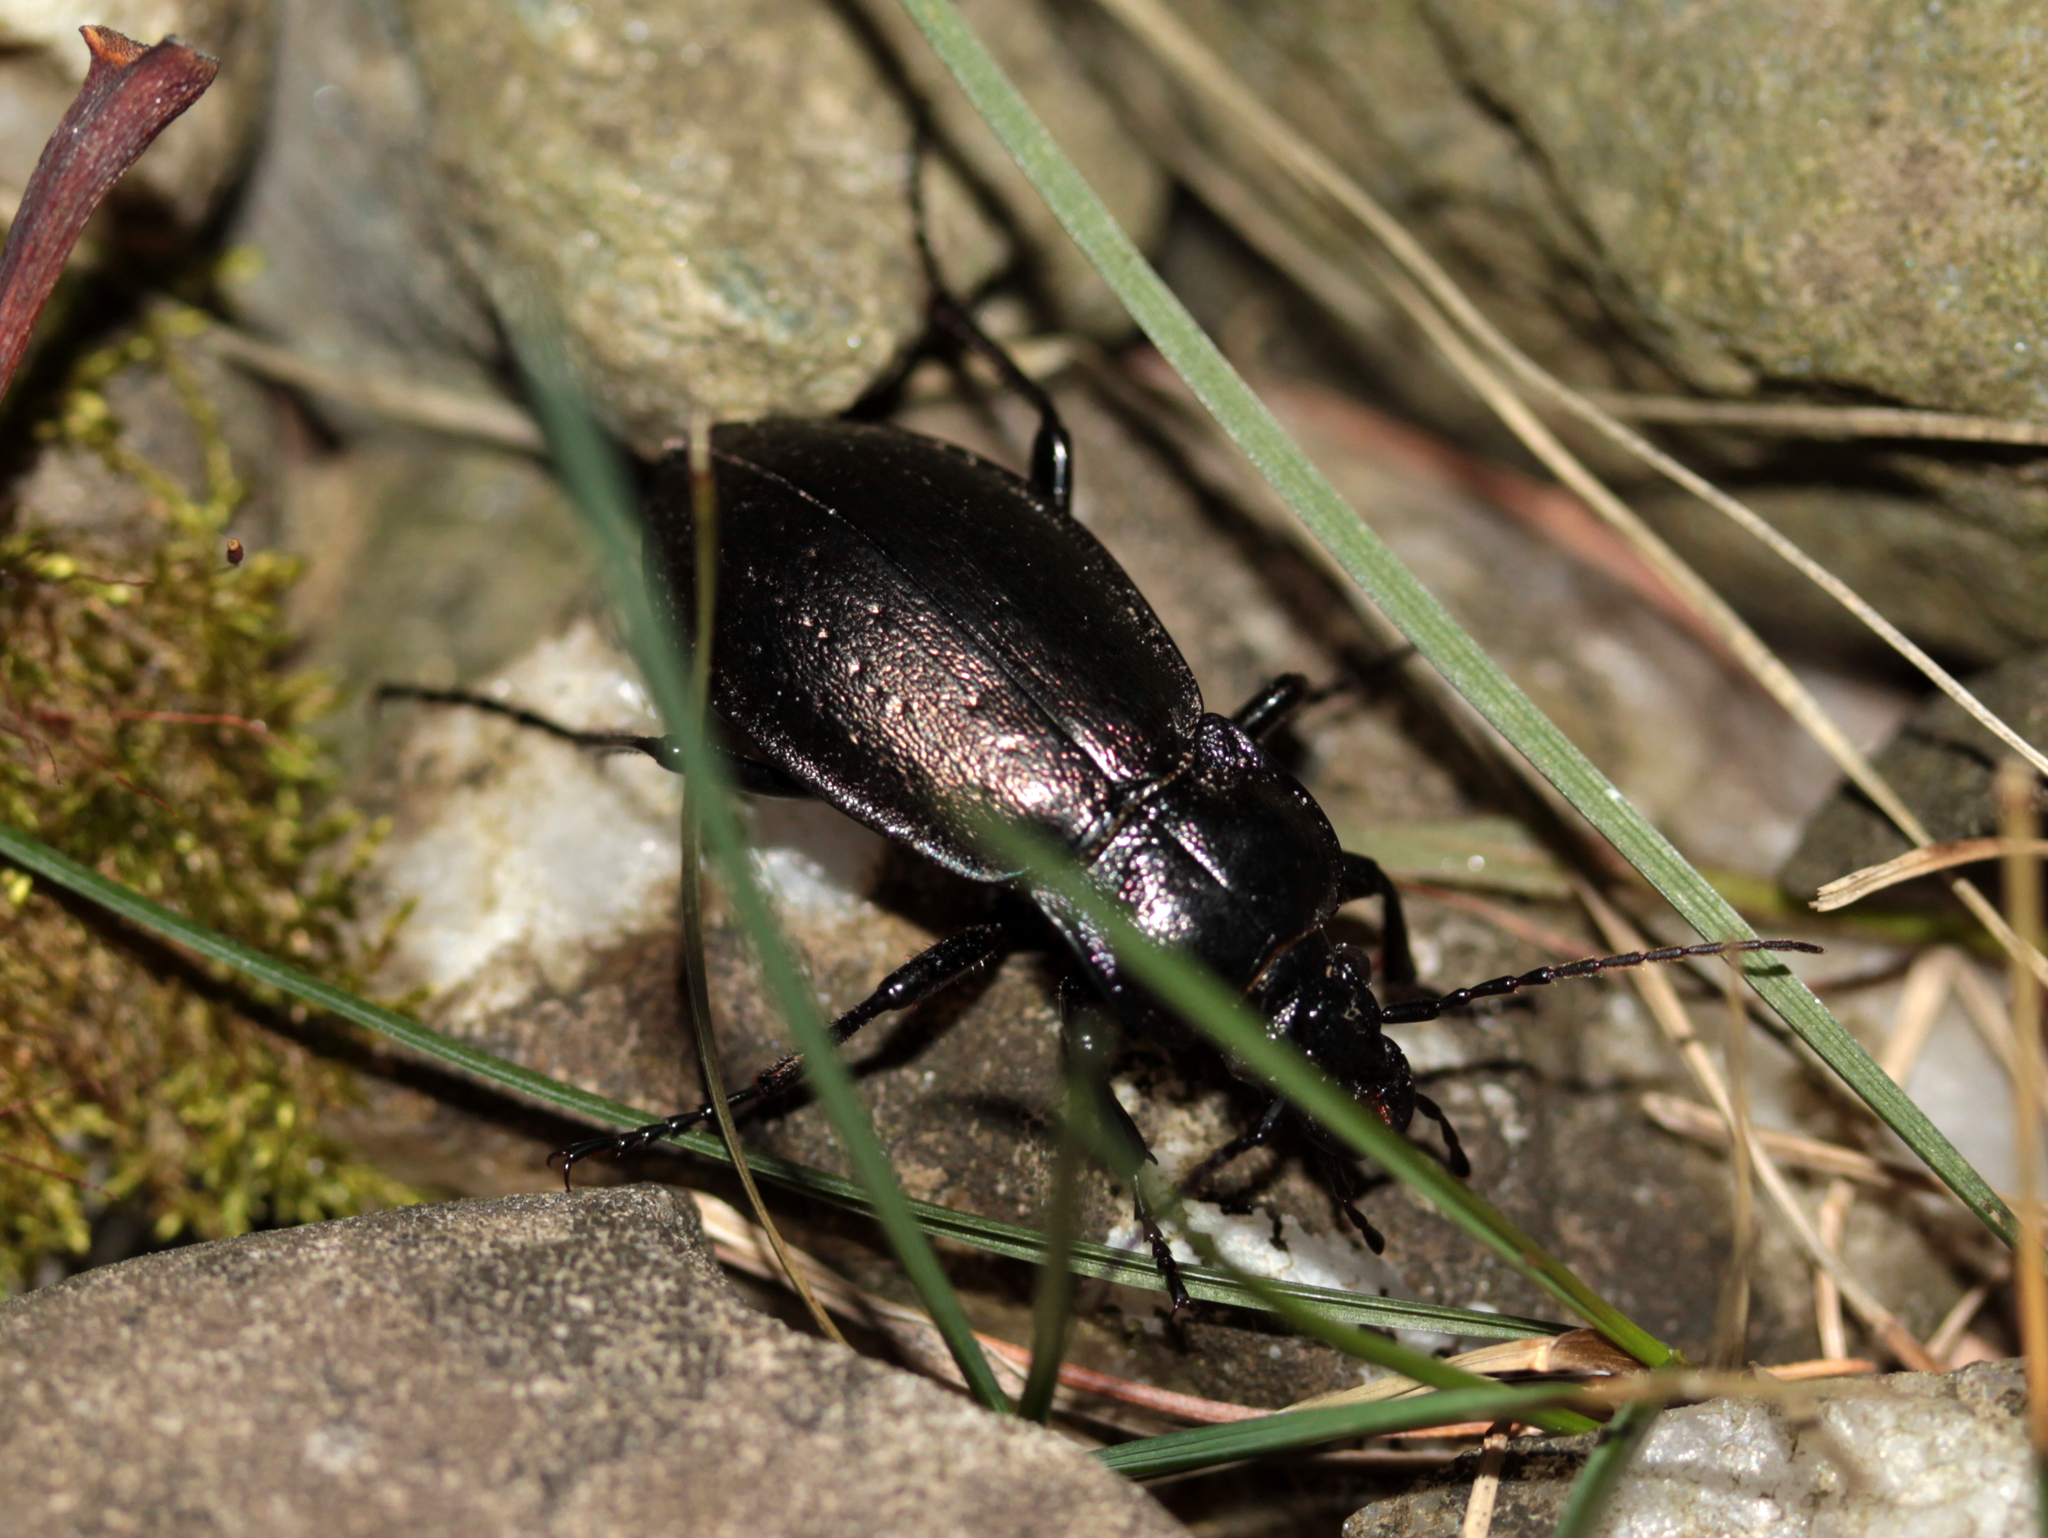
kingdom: Animalia
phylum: Arthropoda
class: Insecta
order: Coleoptera
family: Carabidae
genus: Carabus
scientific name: Carabus nemoralis
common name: European ground beetle
